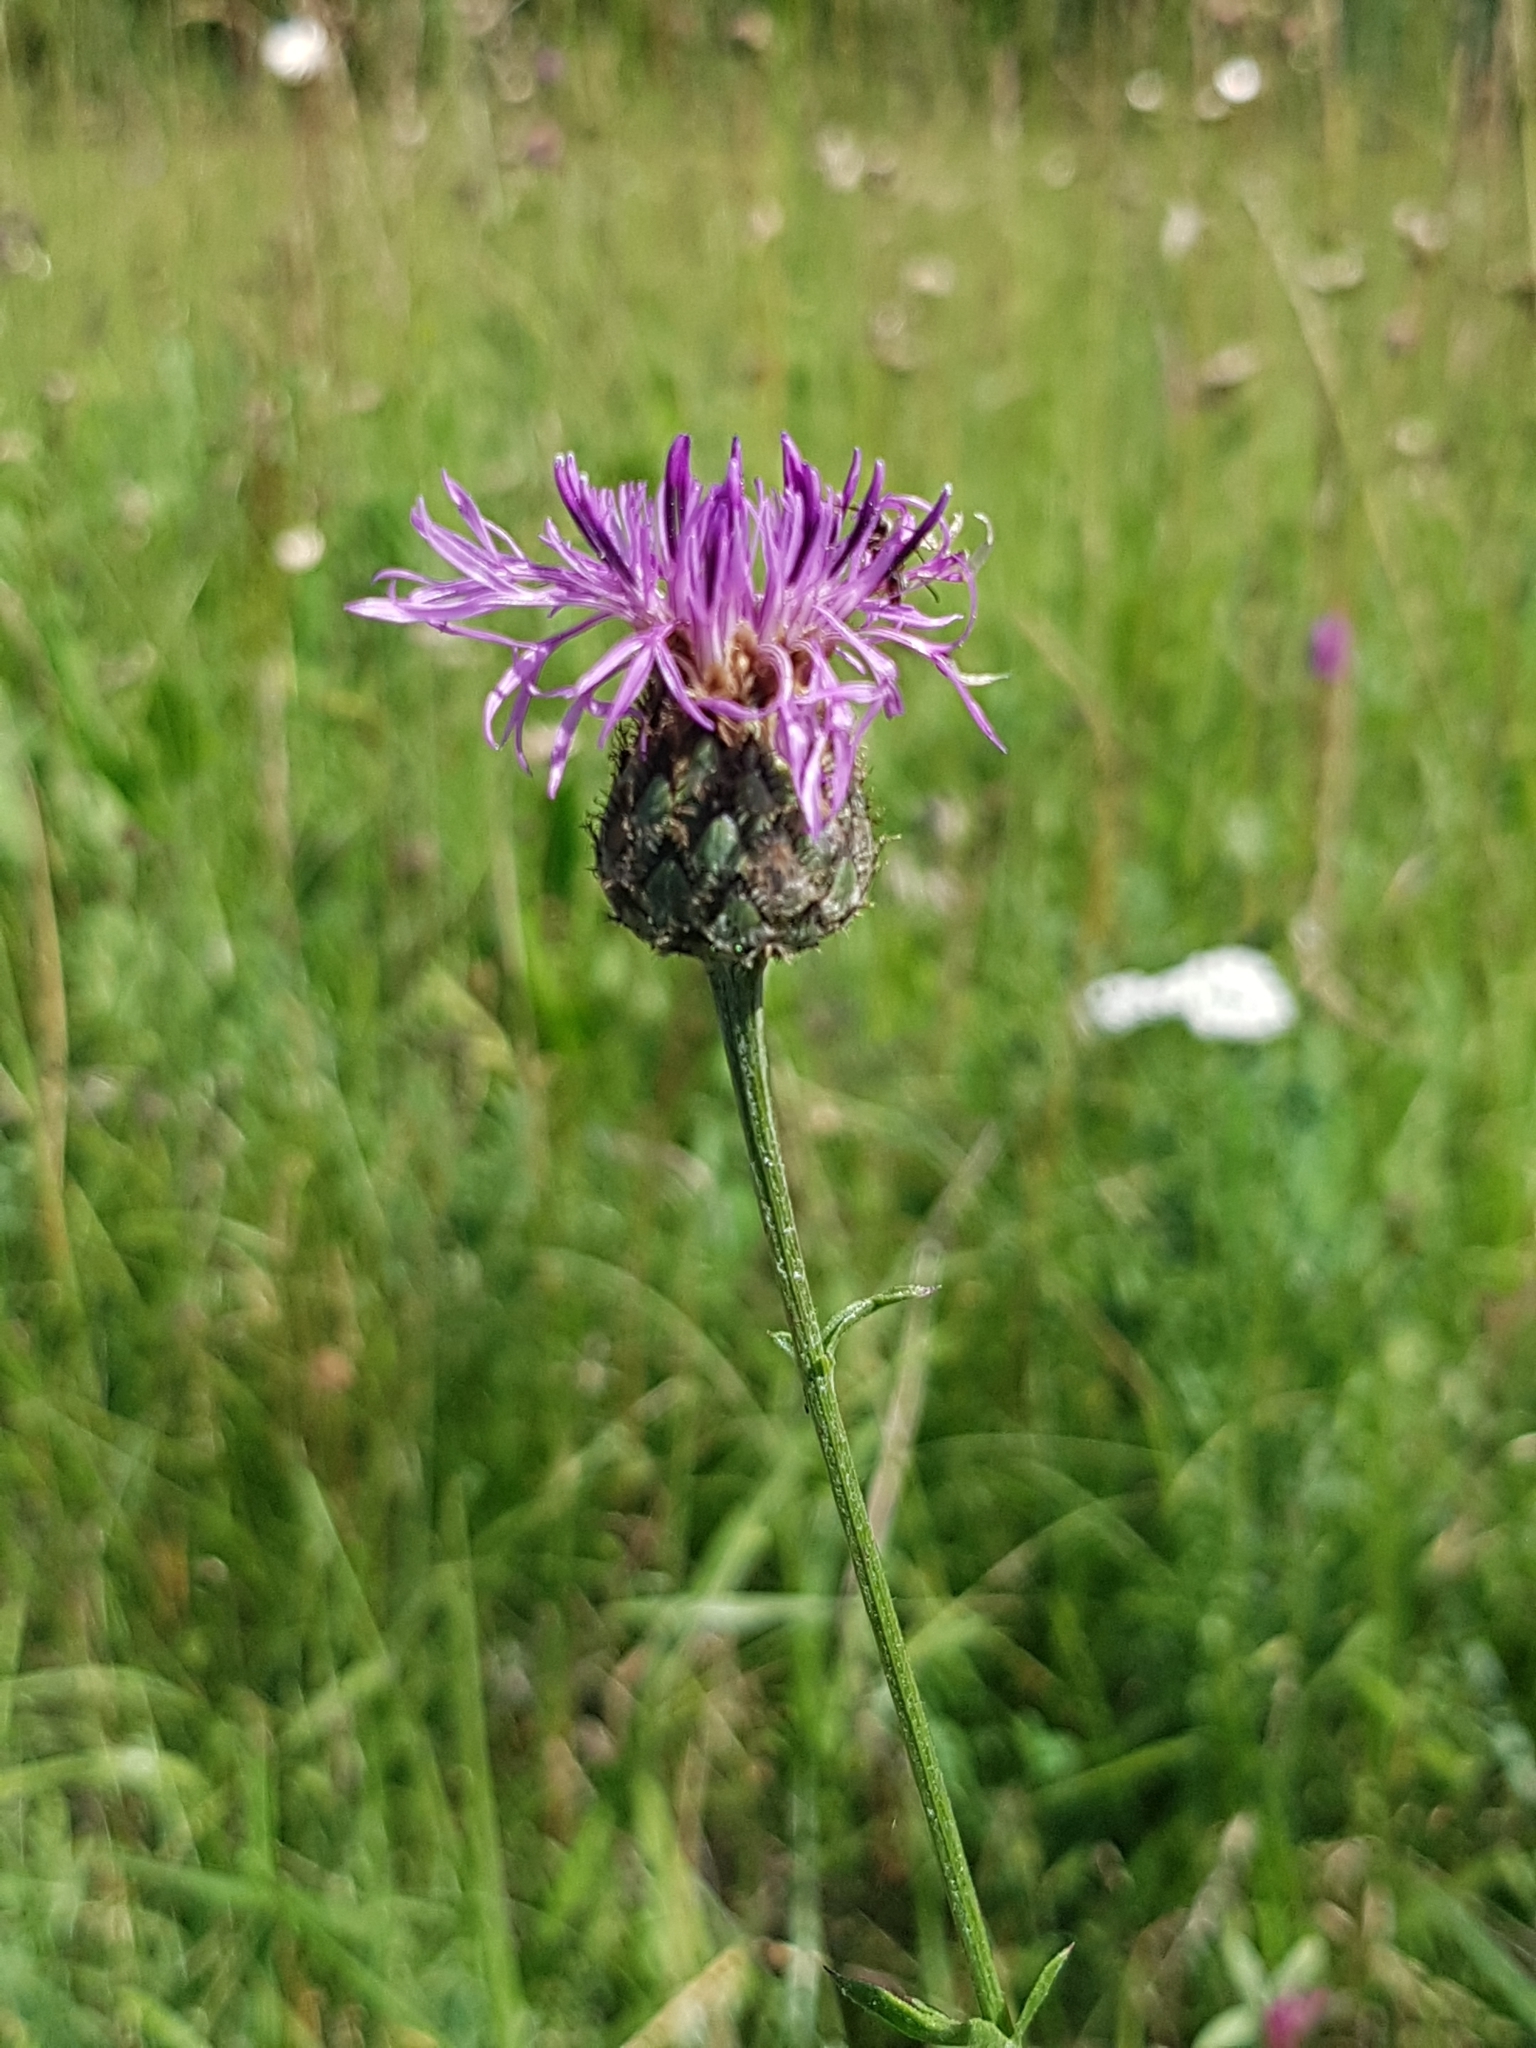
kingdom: Plantae
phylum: Tracheophyta
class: Magnoliopsida
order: Asterales
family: Asteraceae
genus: Centaurea
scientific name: Centaurea scabiosa
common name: Greater knapweed
